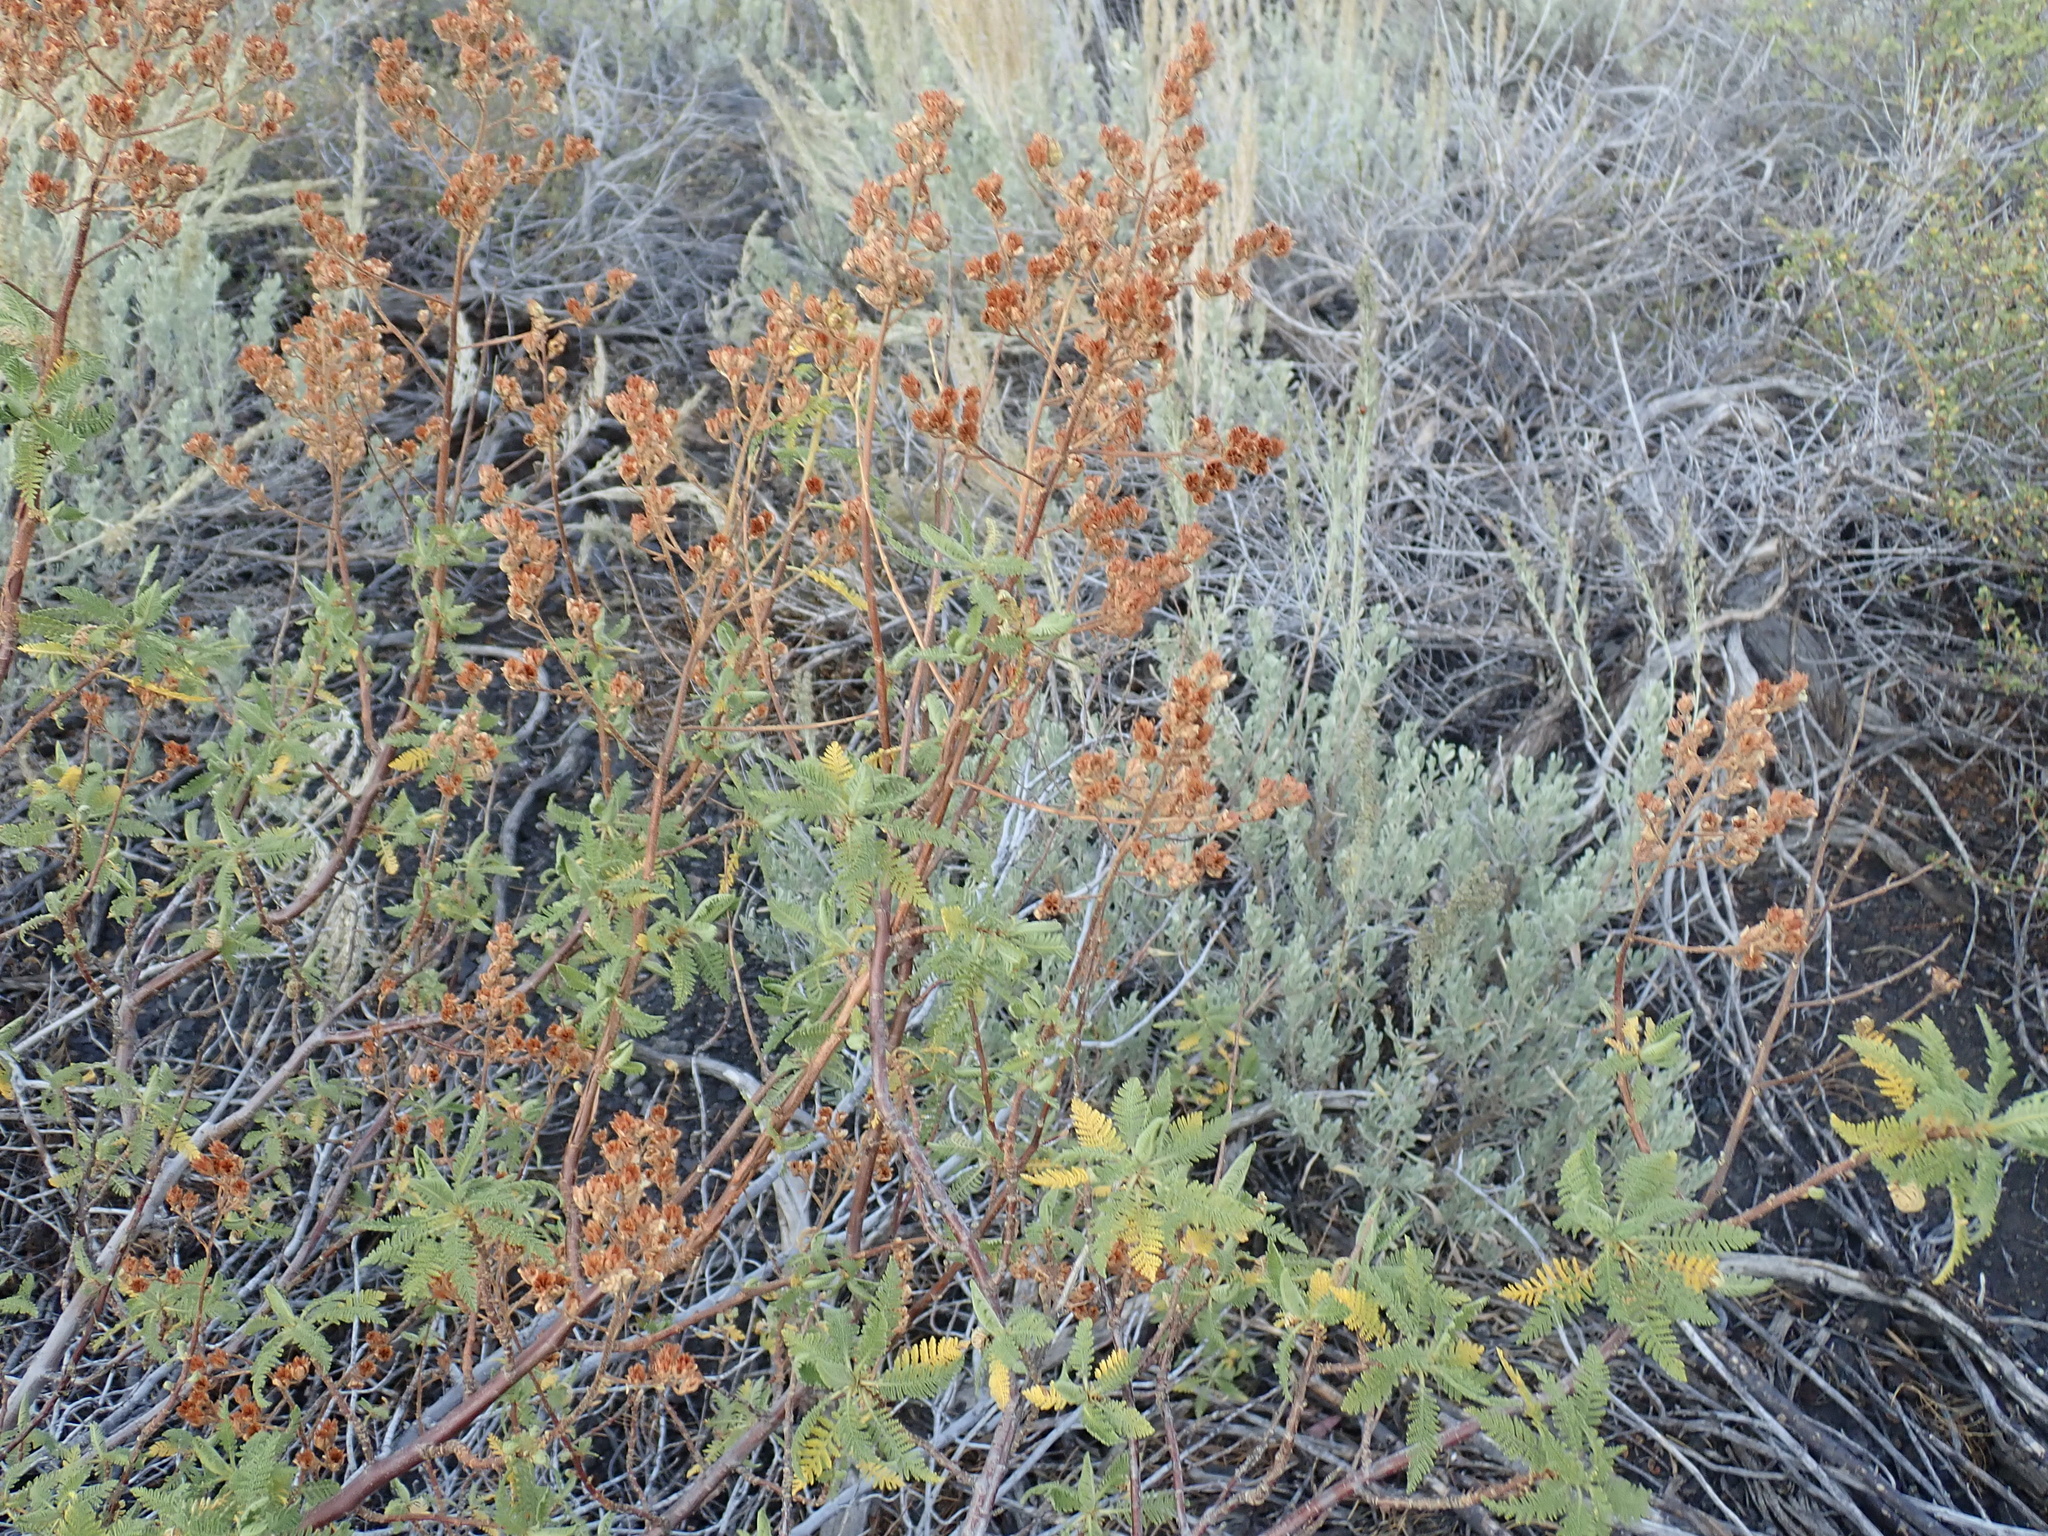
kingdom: Plantae
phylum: Tracheophyta
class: Magnoliopsida
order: Rosales
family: Rosaceae
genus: Chamaebatiaria
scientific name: Chamaebatiaria millefolium
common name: Fernbush
